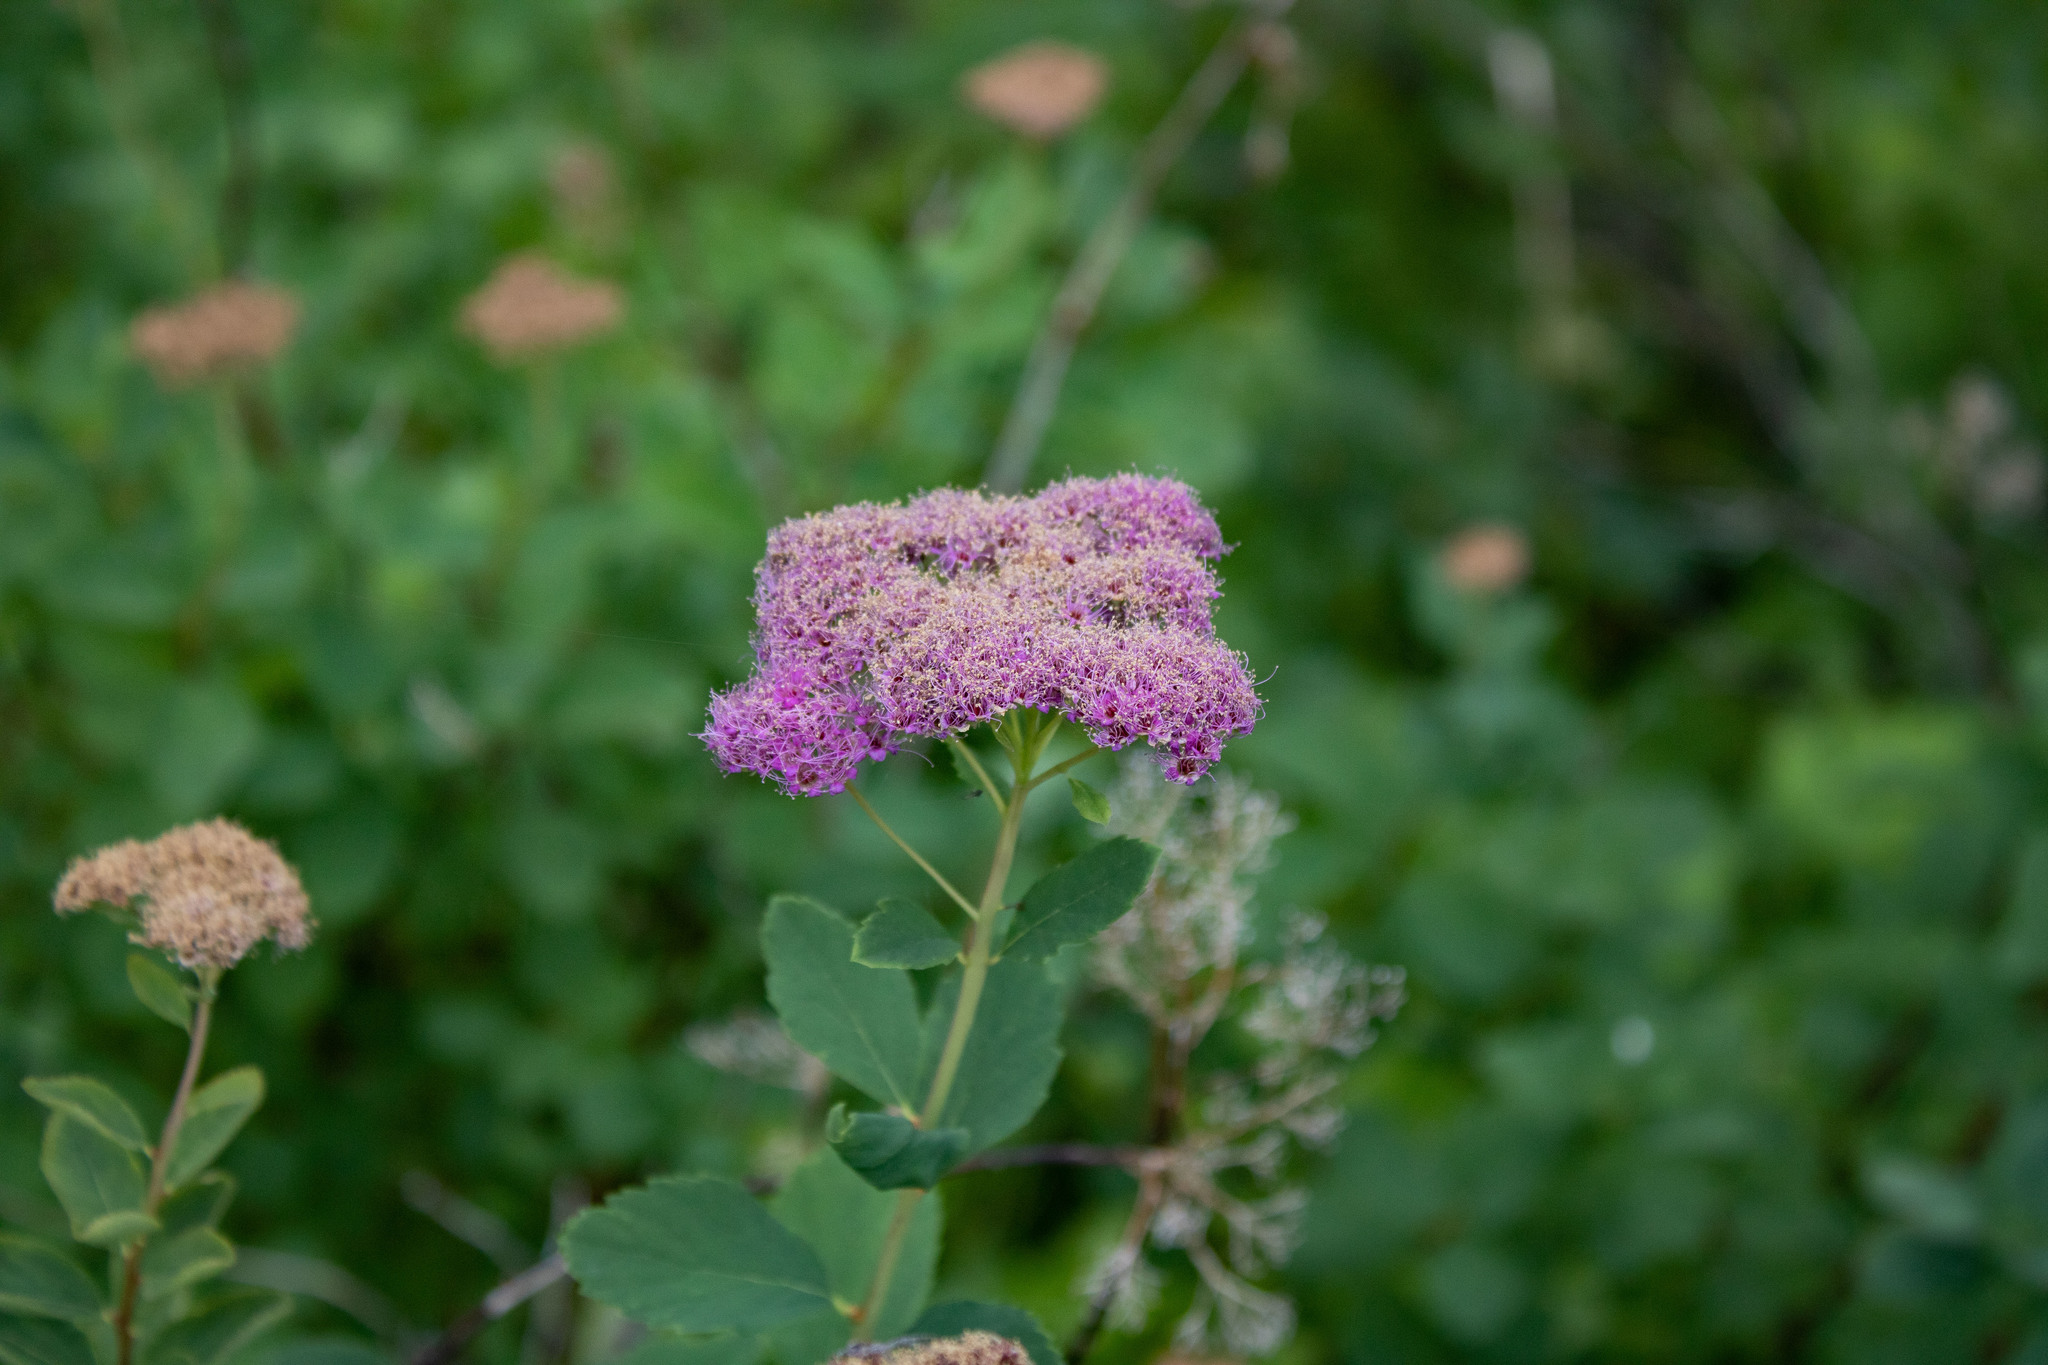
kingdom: Plantae
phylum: Tracheophyta
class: Magnoliopsida
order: Rosales
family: Rosaceae
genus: Spiraea
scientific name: Spiraea splendens
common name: Subalpine meadowsweet
